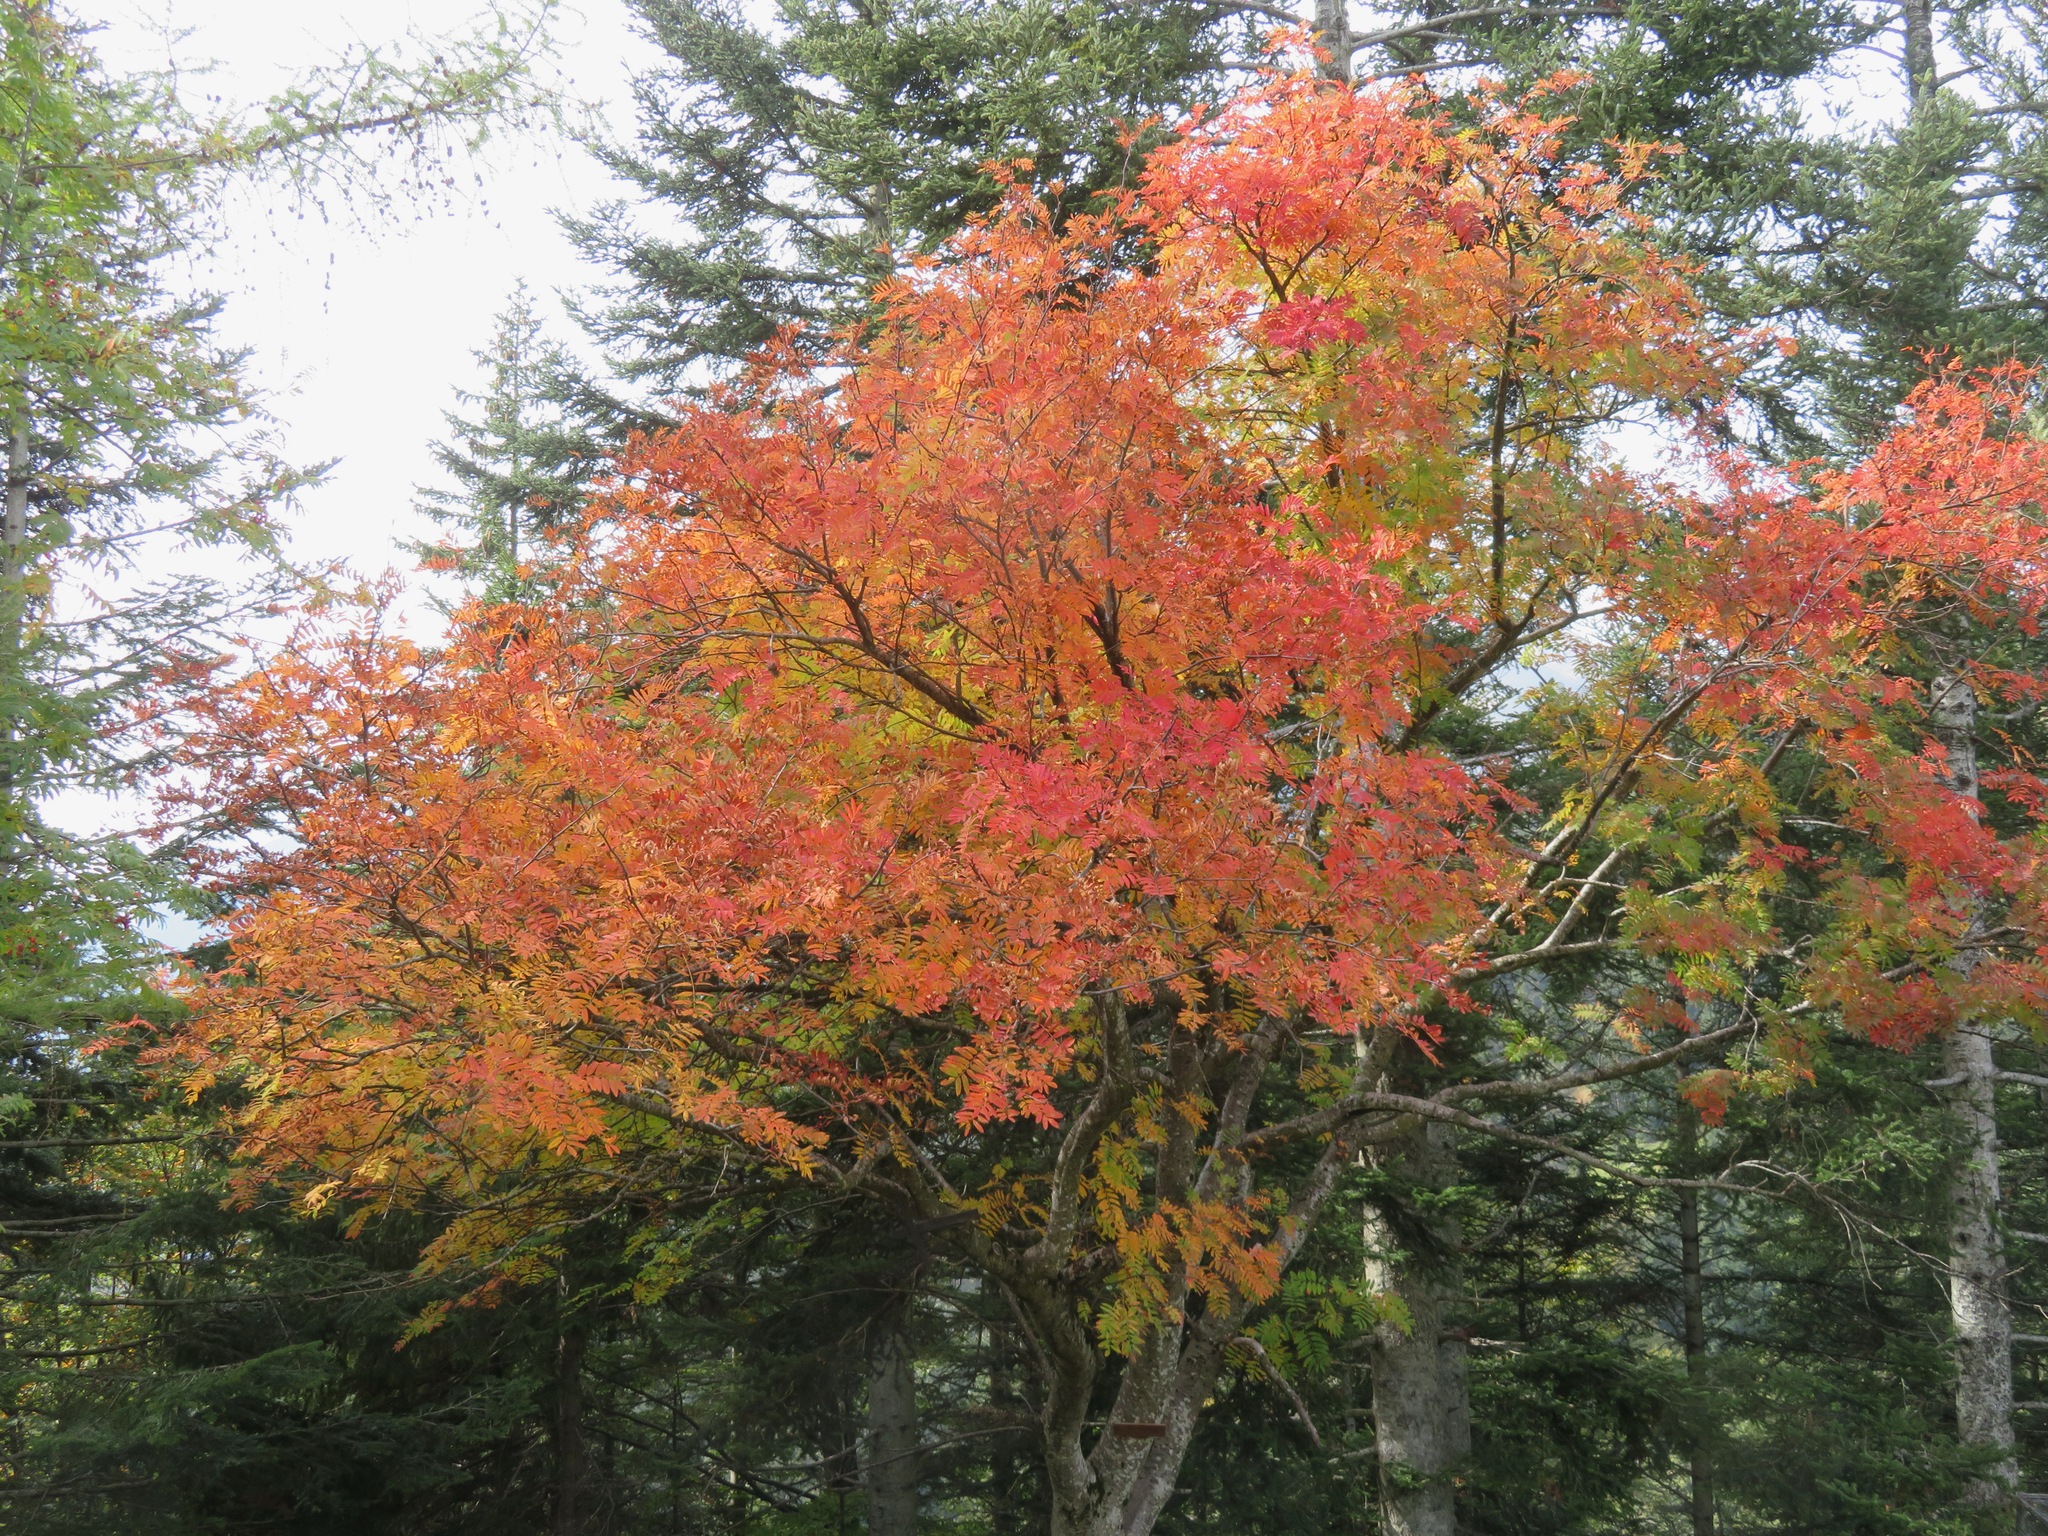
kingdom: Plantae
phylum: Tracheophyta
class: Magnoliopsida
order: Rosales
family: Rosaceae
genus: Sorbus
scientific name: Sorbus aucuparia
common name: Rowan
